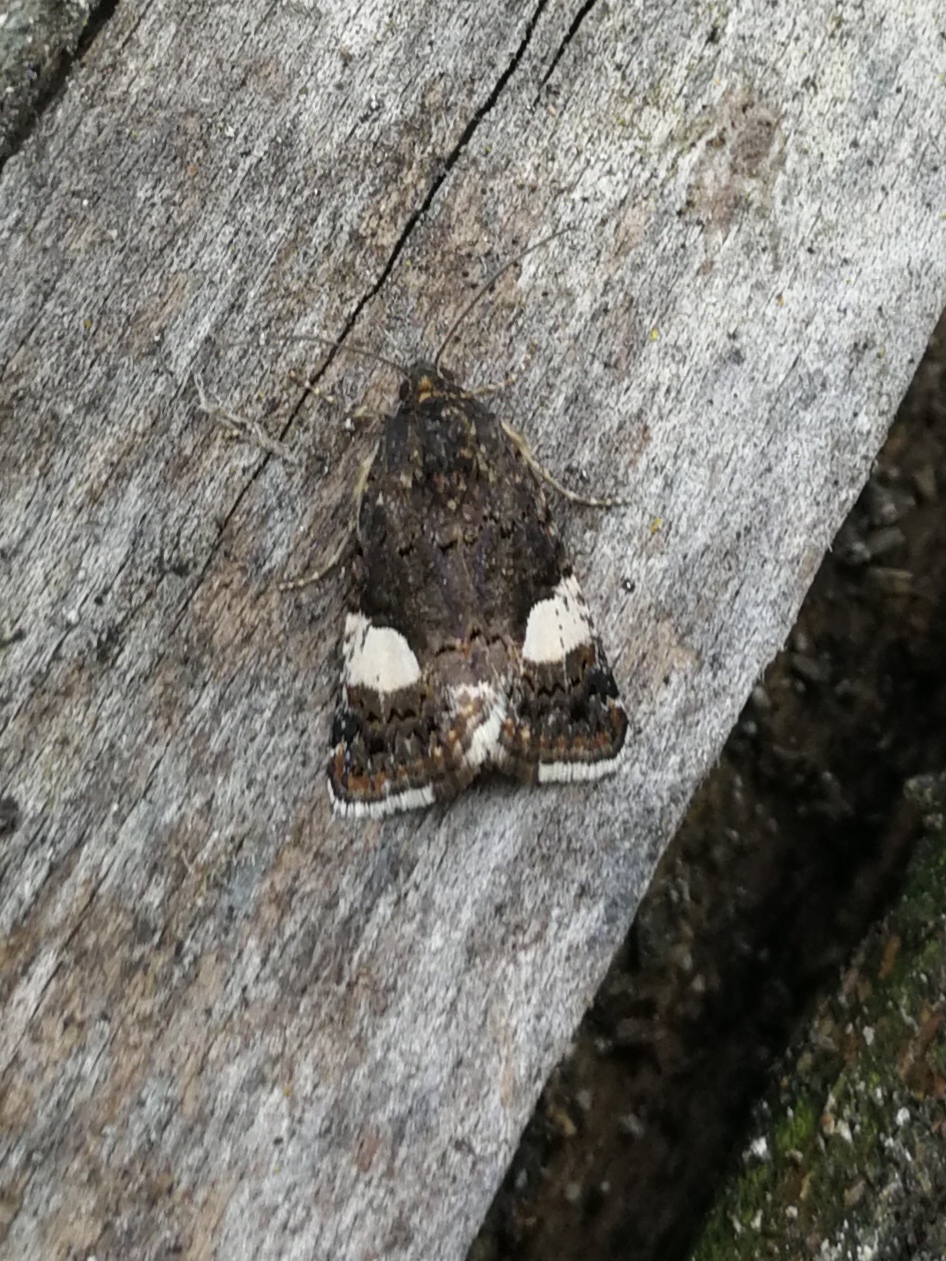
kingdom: Animalia
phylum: Arthropoda
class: Insecta
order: Lepidoptera
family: Erebidae
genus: Tyta
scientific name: Tyta luctuosa
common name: Four-spotted
